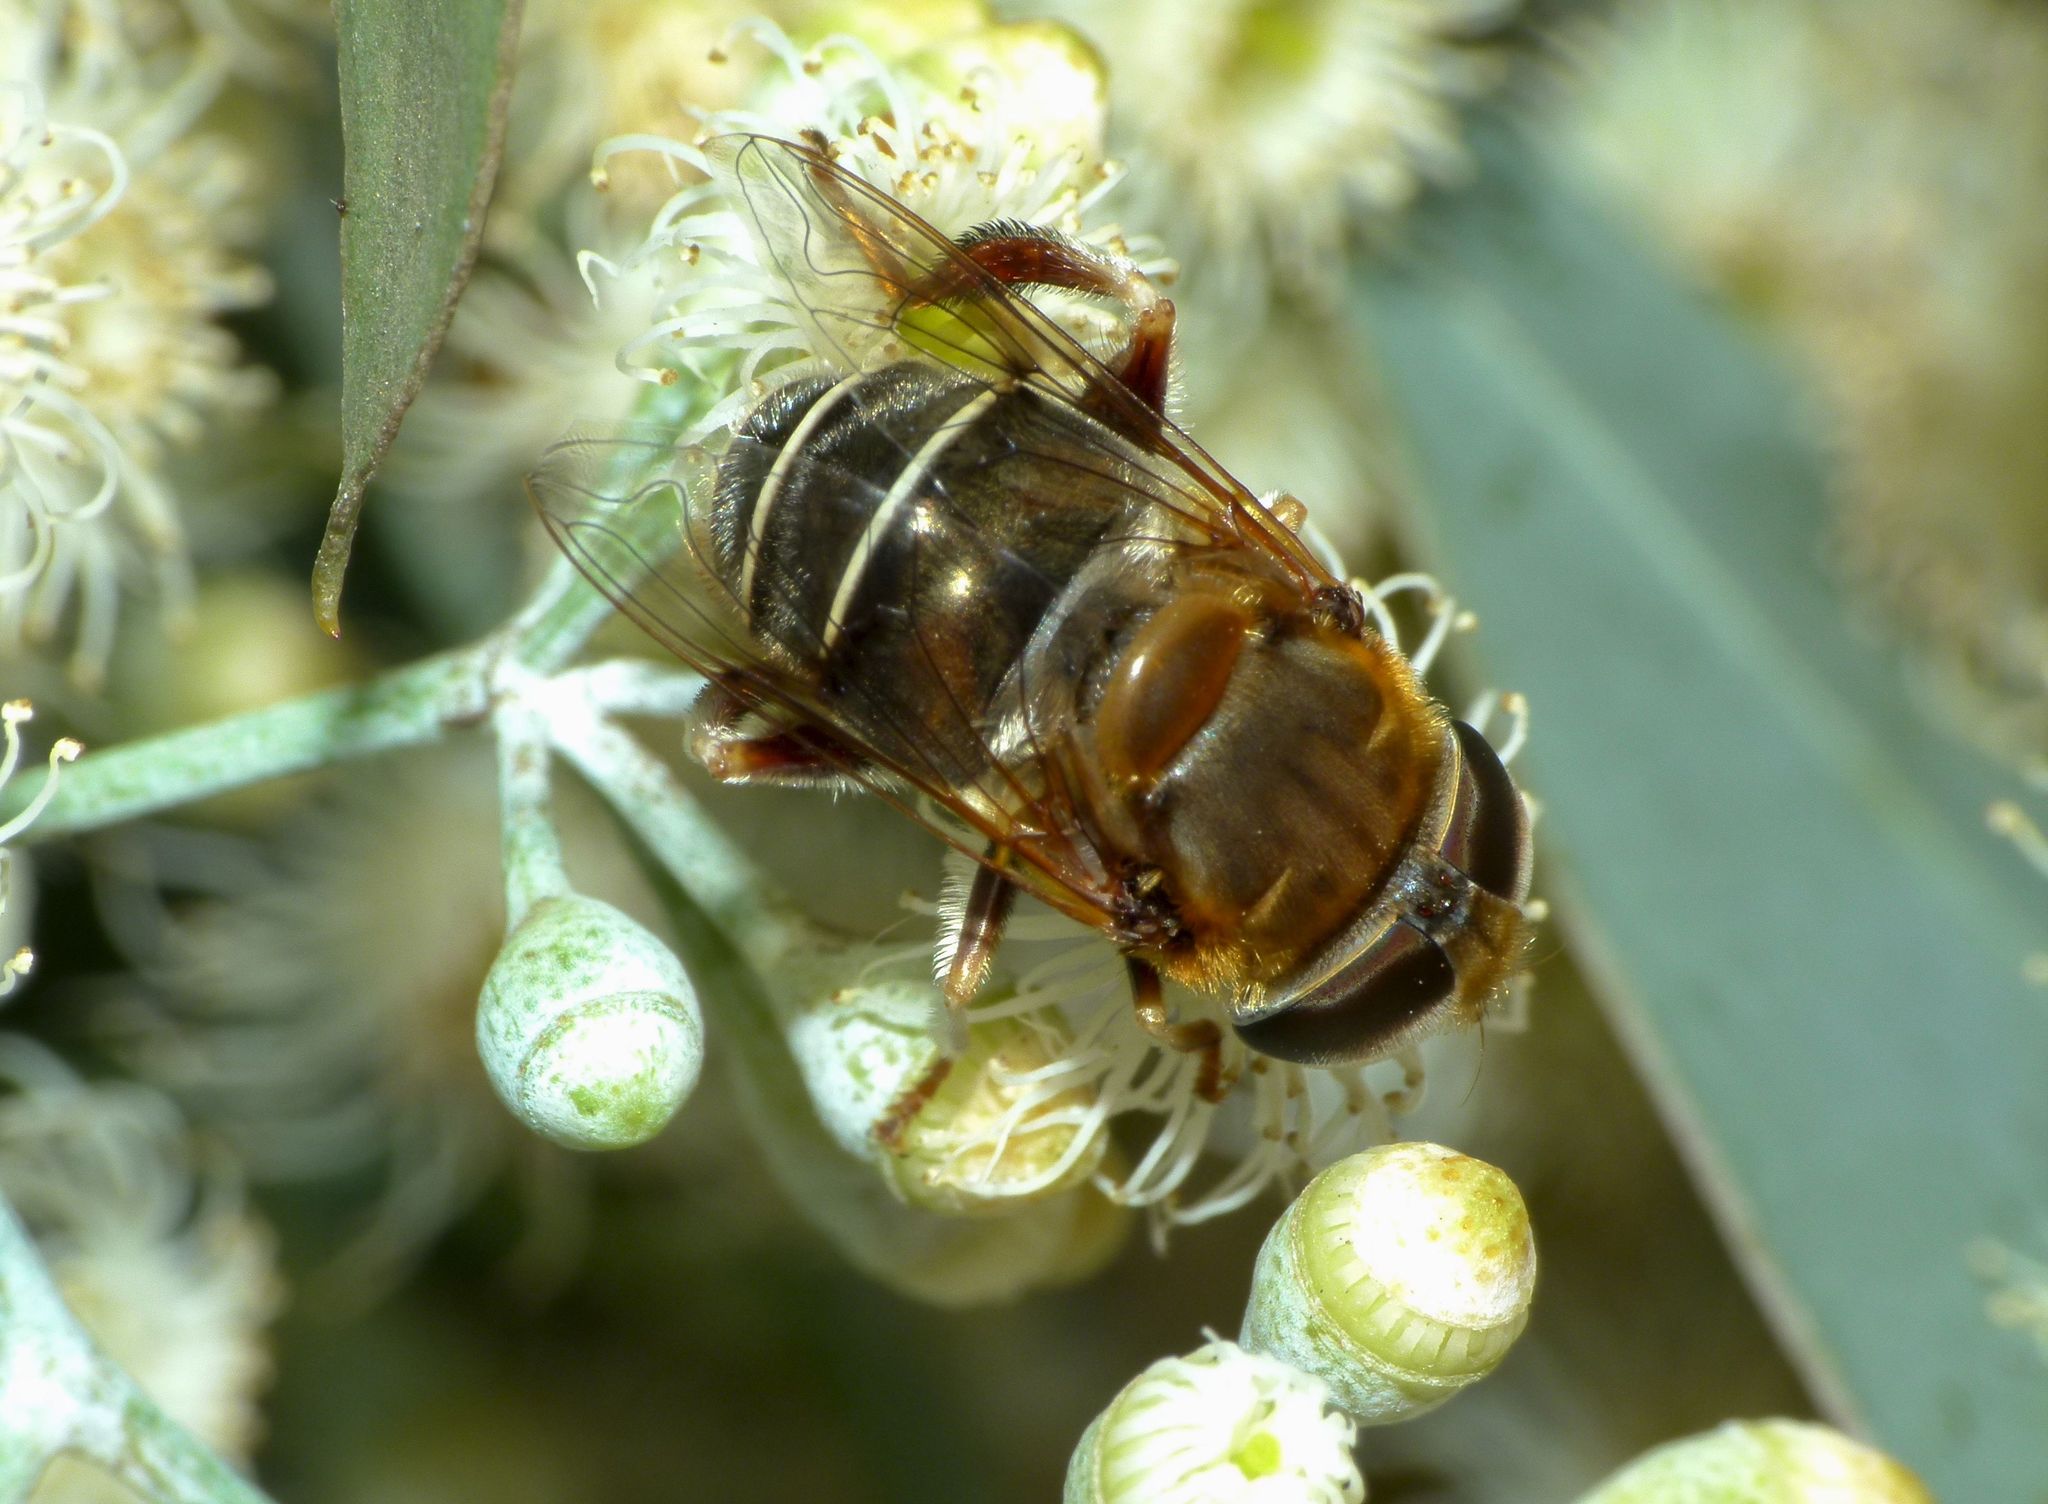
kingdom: Animalia
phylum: Arthropoda
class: Insecta
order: Diptera
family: Syrphidae
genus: Palpada
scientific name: Palpada mexicana
